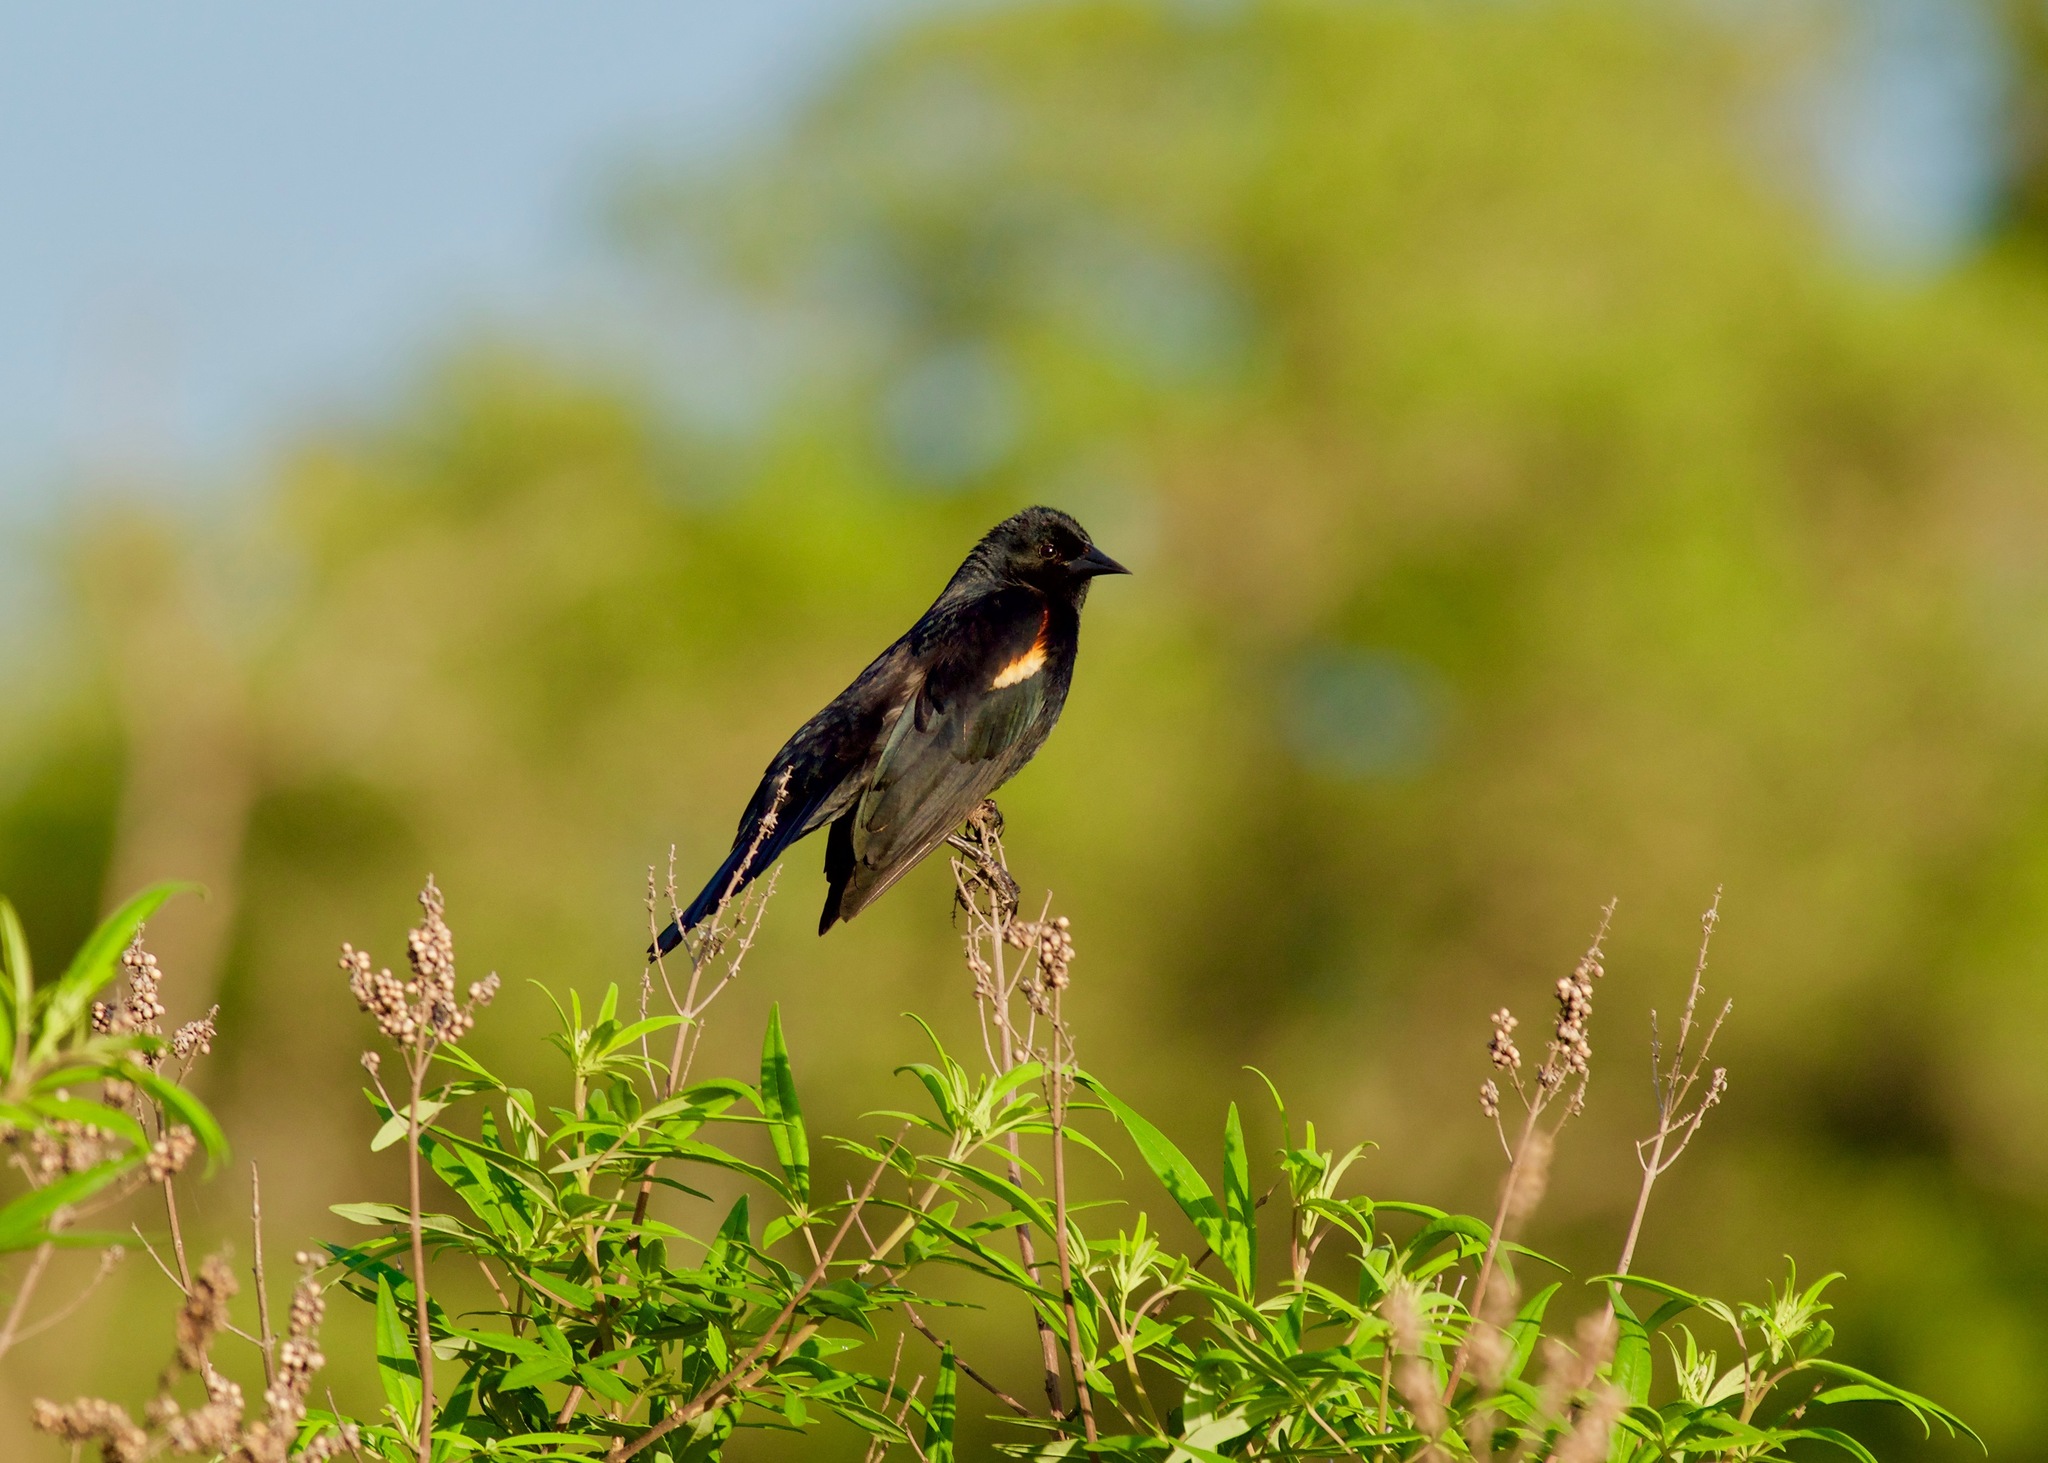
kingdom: Animalia
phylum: Chordata
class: Aves
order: Passeriformes
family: Icteridae
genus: Agelaius
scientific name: Agelaius phoeniceus
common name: Red-winged blackbird
